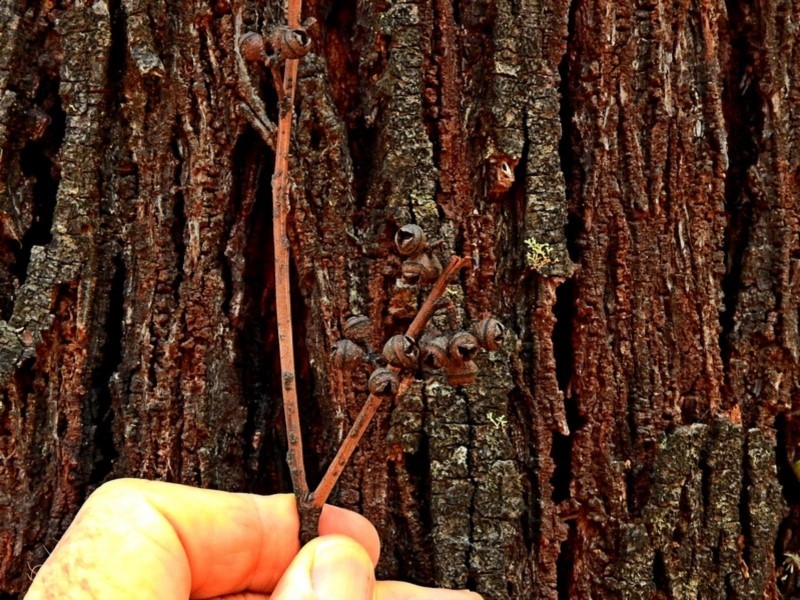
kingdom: Plantae
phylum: Tracheophyta
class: Magnoliopsida
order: Myrtales
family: Myrtaceae
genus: Eucalyptus
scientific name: Eucalyptus smithii
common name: Blackbutt-peppermint
